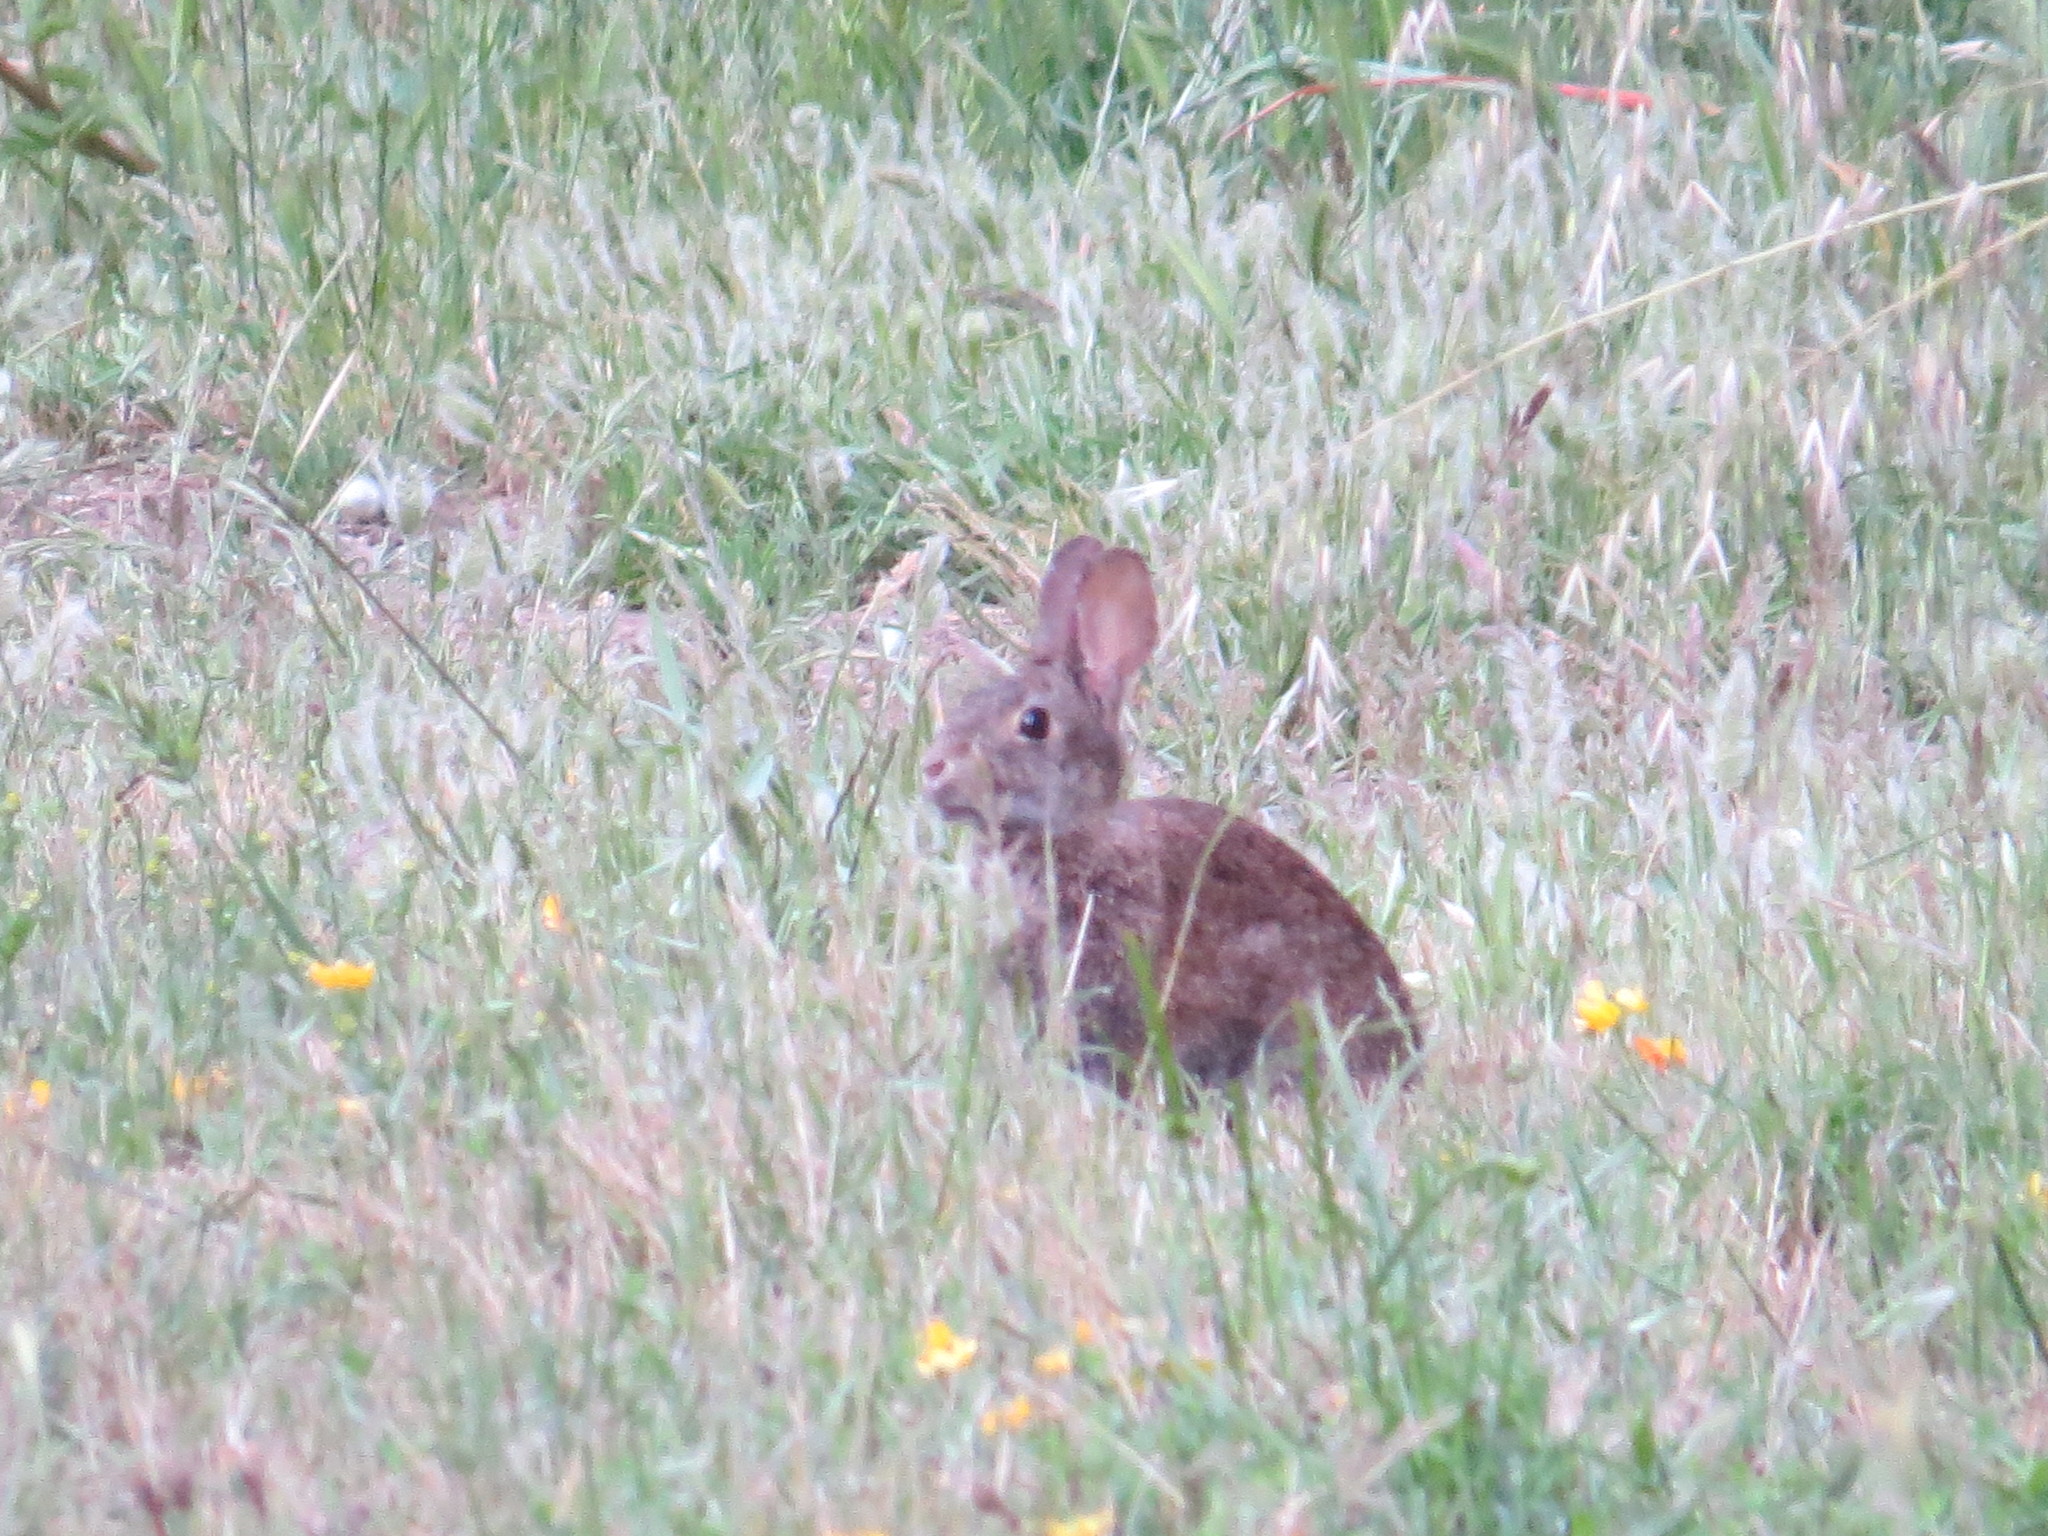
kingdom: Animalia
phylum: Chordata
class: Mammalia
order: Lagomorpha
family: Leporidae
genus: Sylvilagus
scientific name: Sylvilagus bachmani
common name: Brush rabbit
